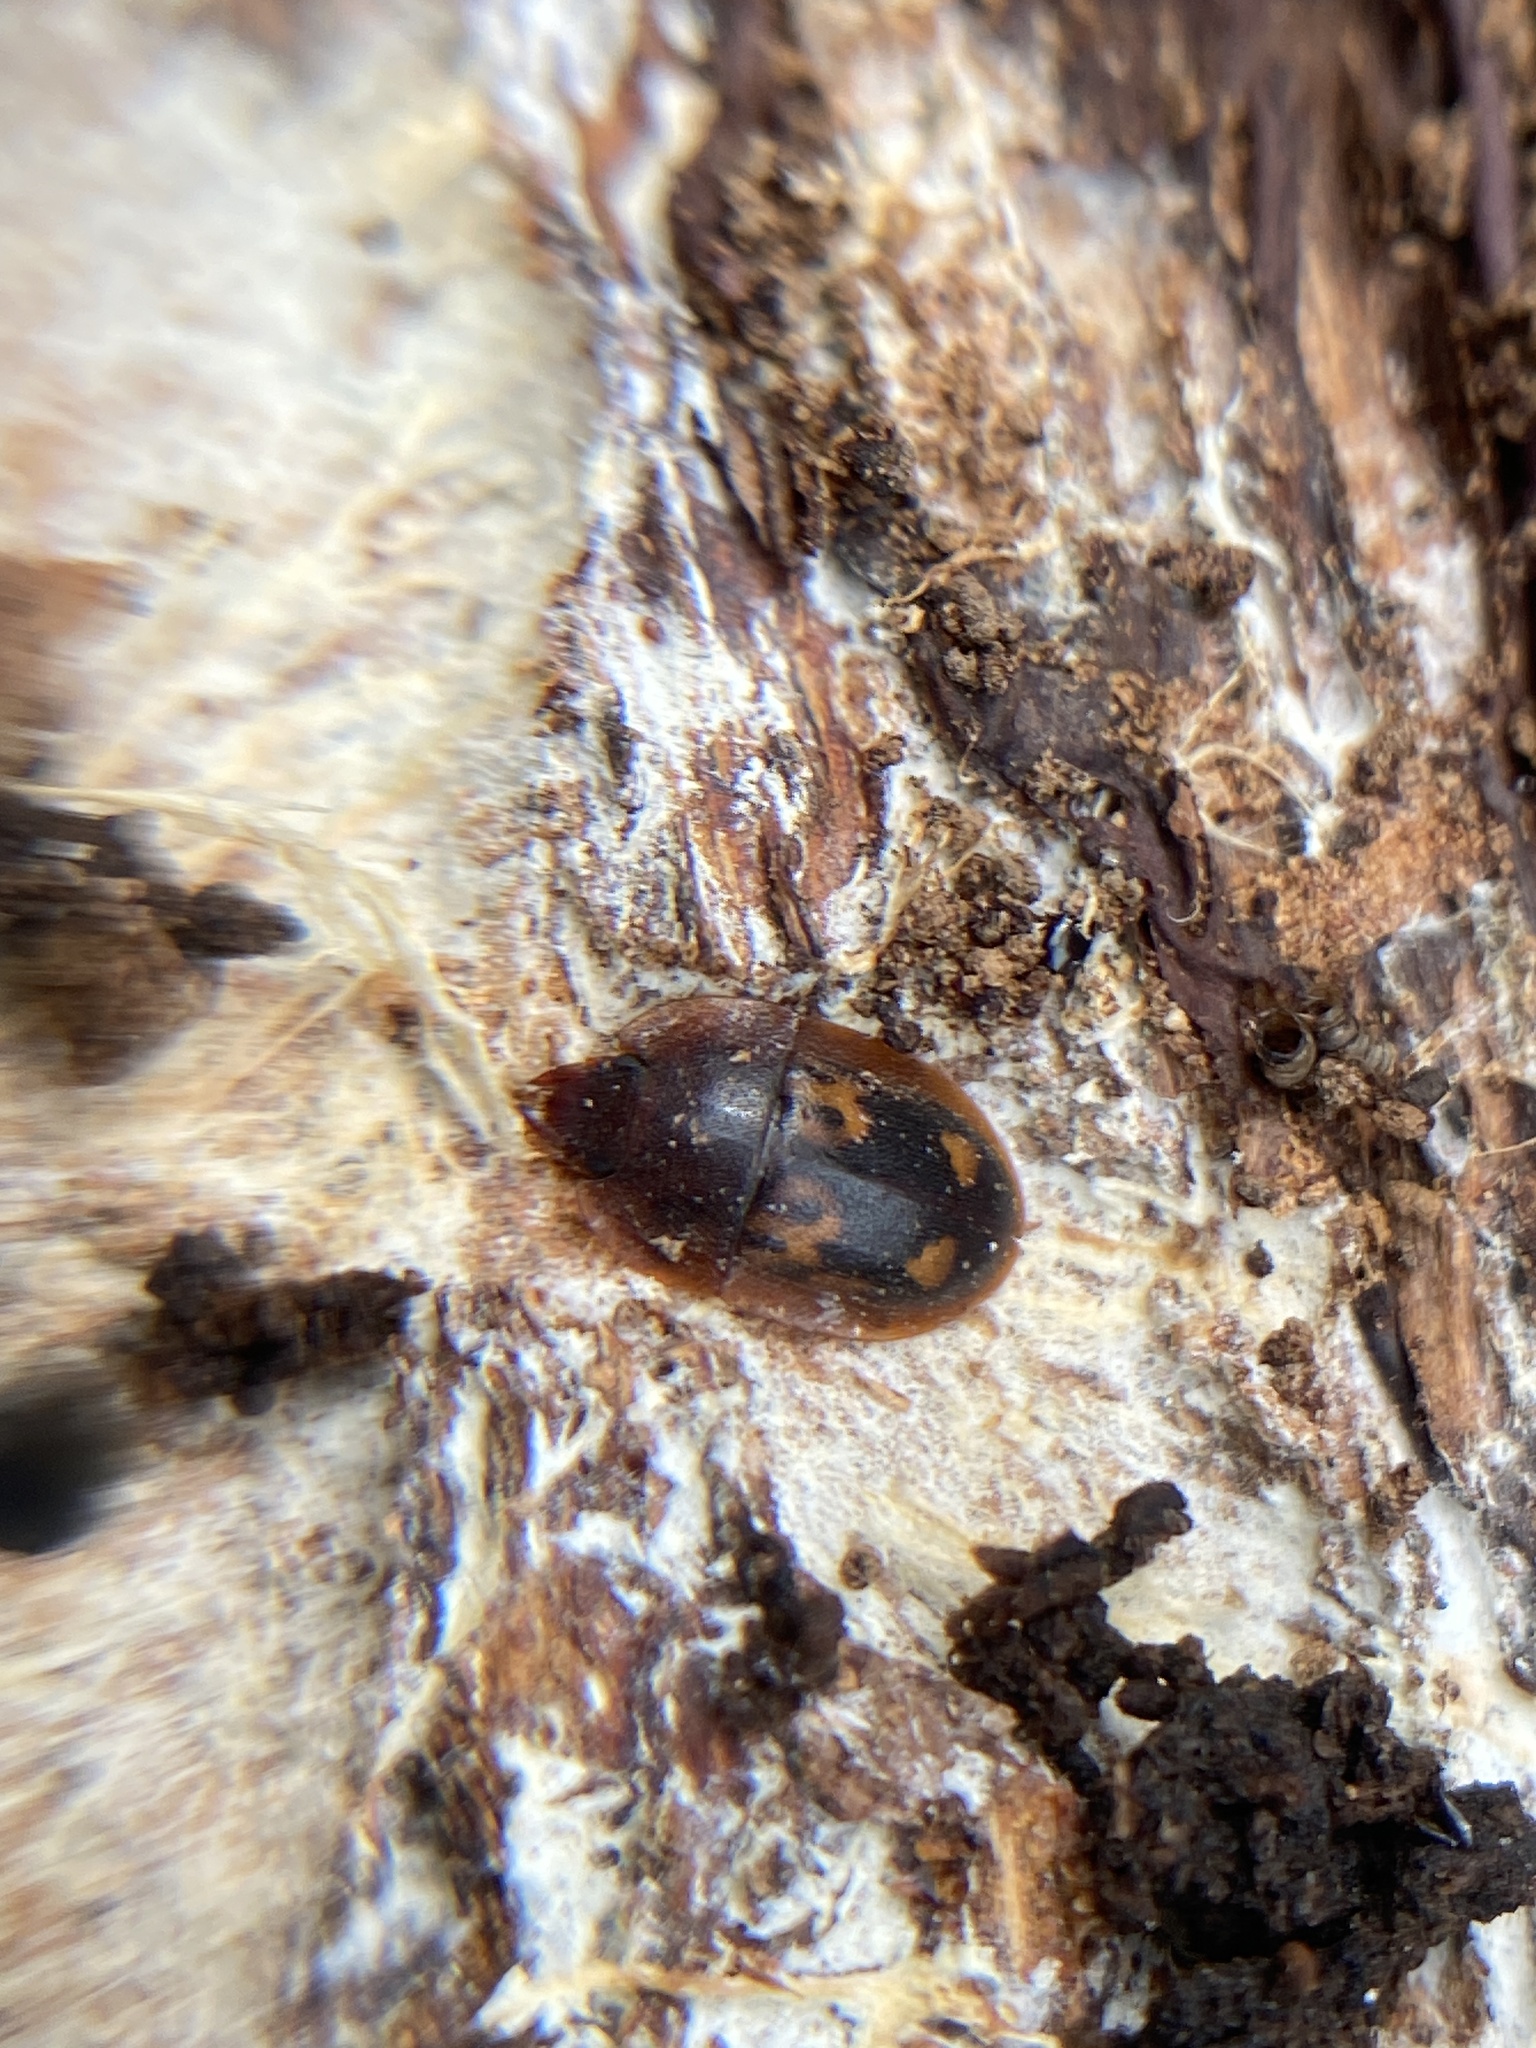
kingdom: Animalia
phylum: Arthropoda
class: Insecta
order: Coleoptera
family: Nitidulidae
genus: Prometopia
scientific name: Prometopia sexmaculata
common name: Six-spotted sap-feeding beetle
